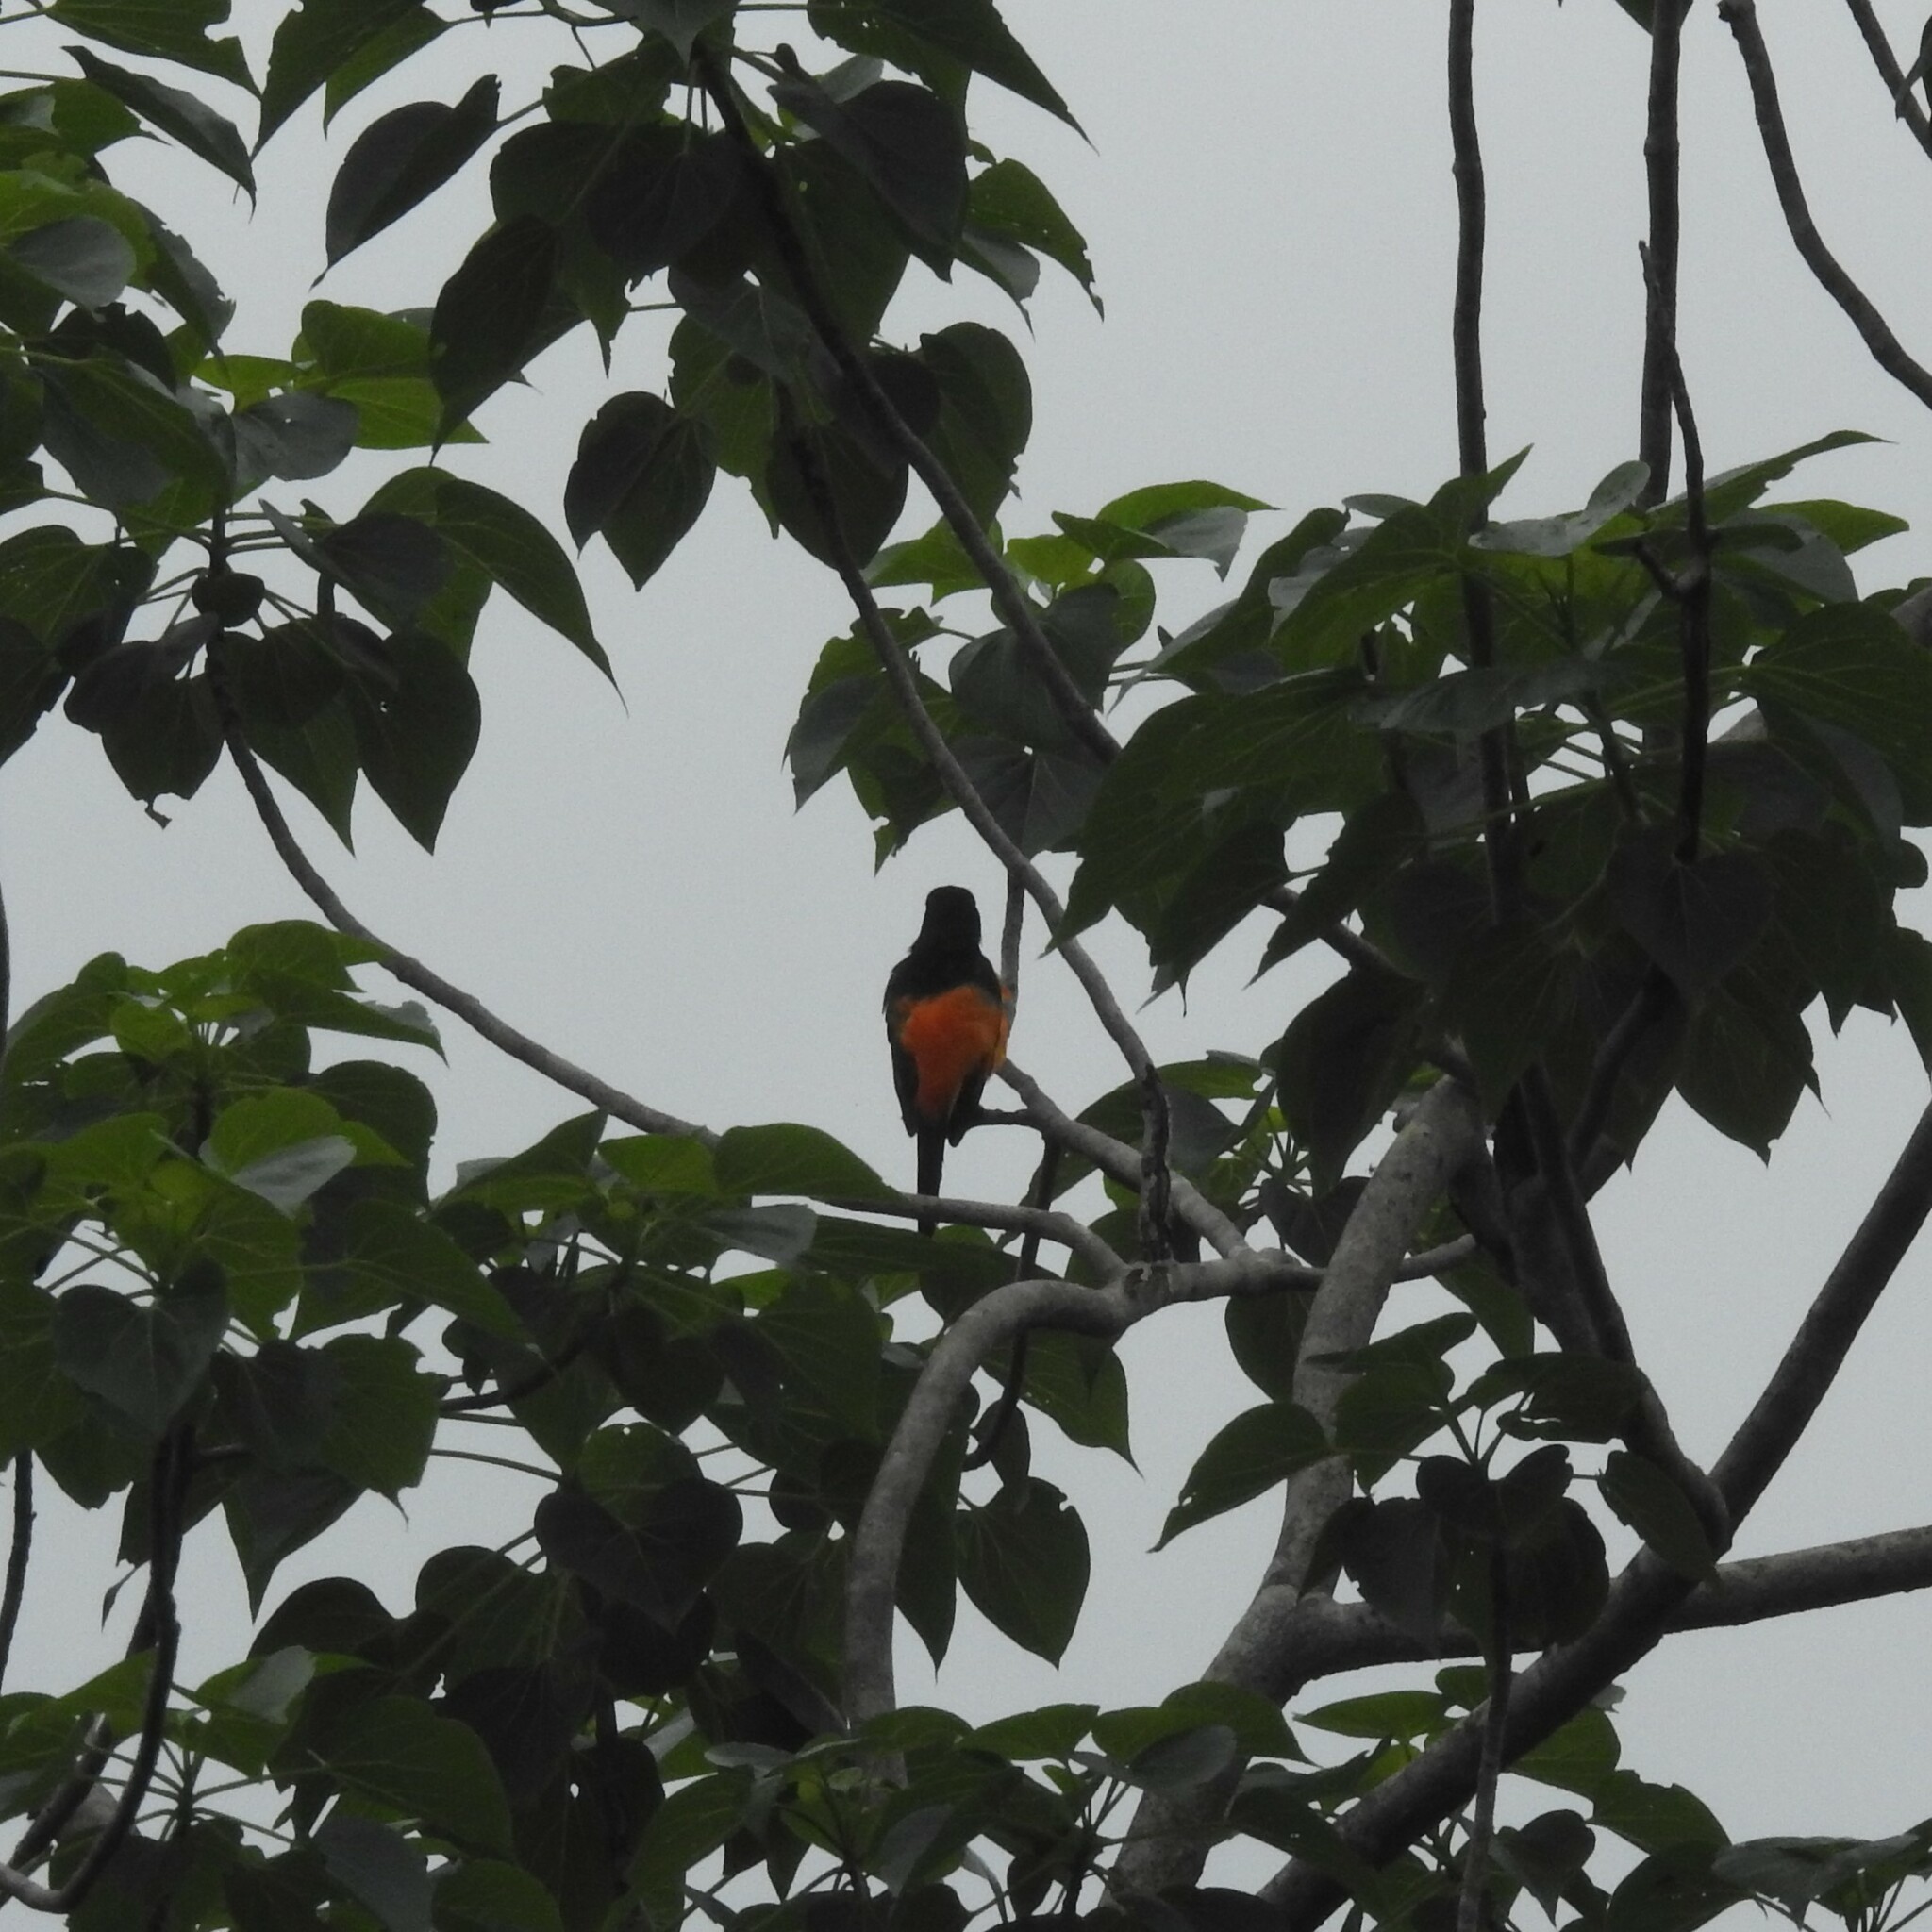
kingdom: Animalia
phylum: Chordata
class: Aves
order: Passeriformes
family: Campephagidae
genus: Pericrocotus
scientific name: Pericrocotus flammeus
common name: Orange minivet
